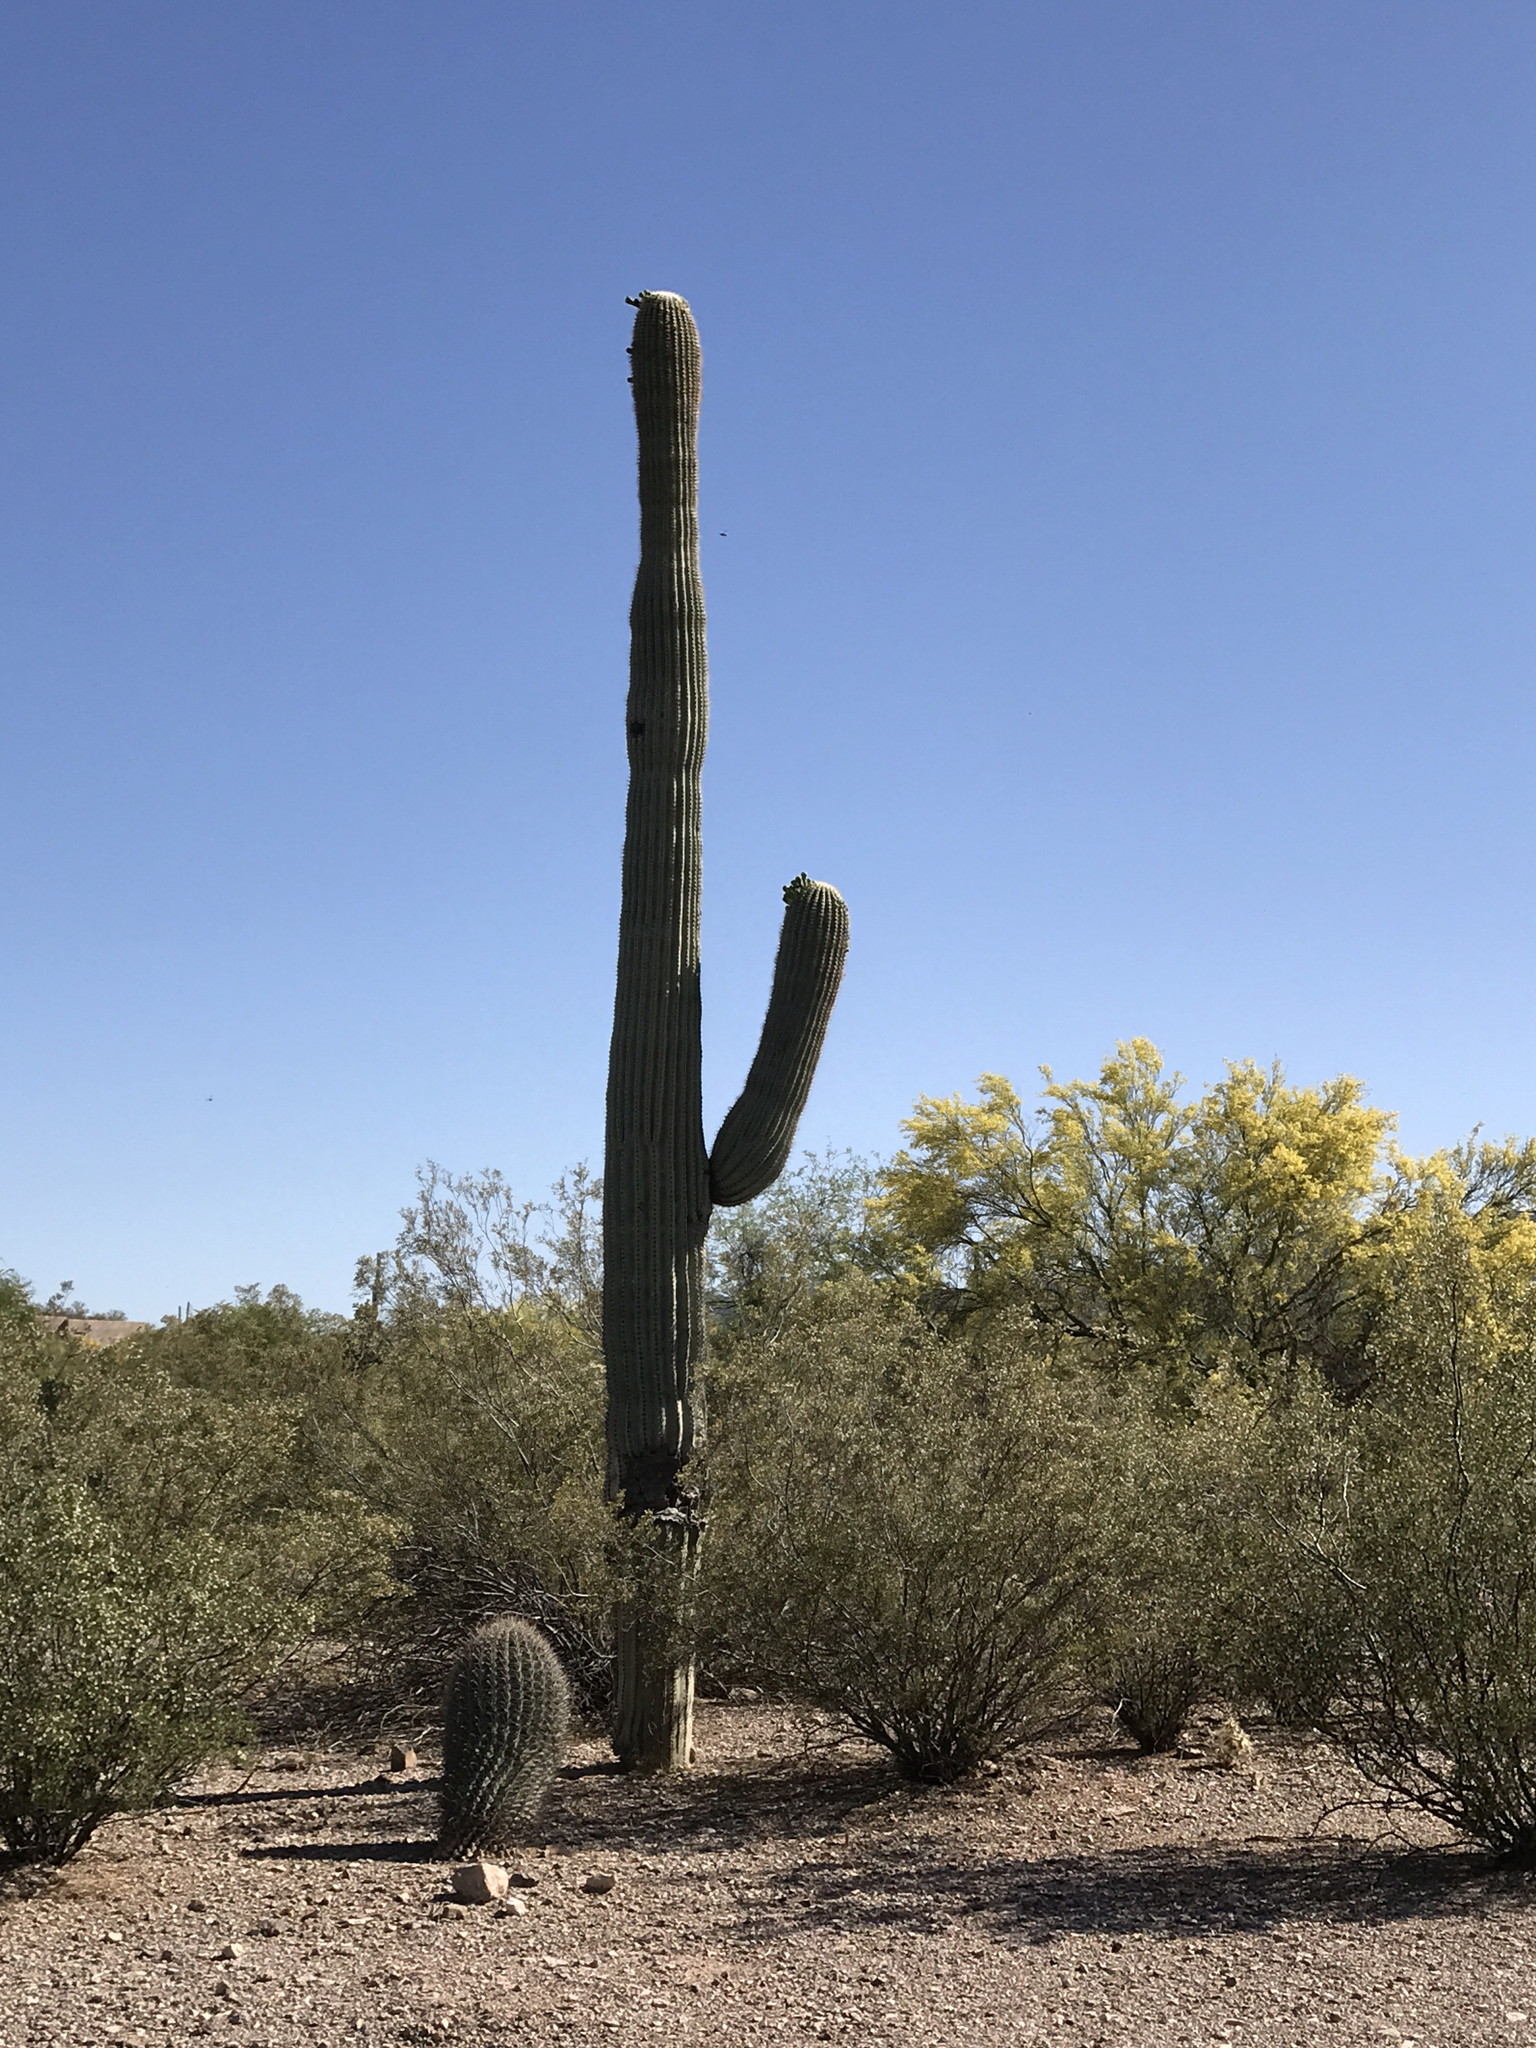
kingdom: Plantae
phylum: Tracheophyta
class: Magnoliopsida
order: Caryophyllales
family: Cactaceae
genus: Ferocactus
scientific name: Ferocactus wislizeni
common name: Candy barrel cactus
